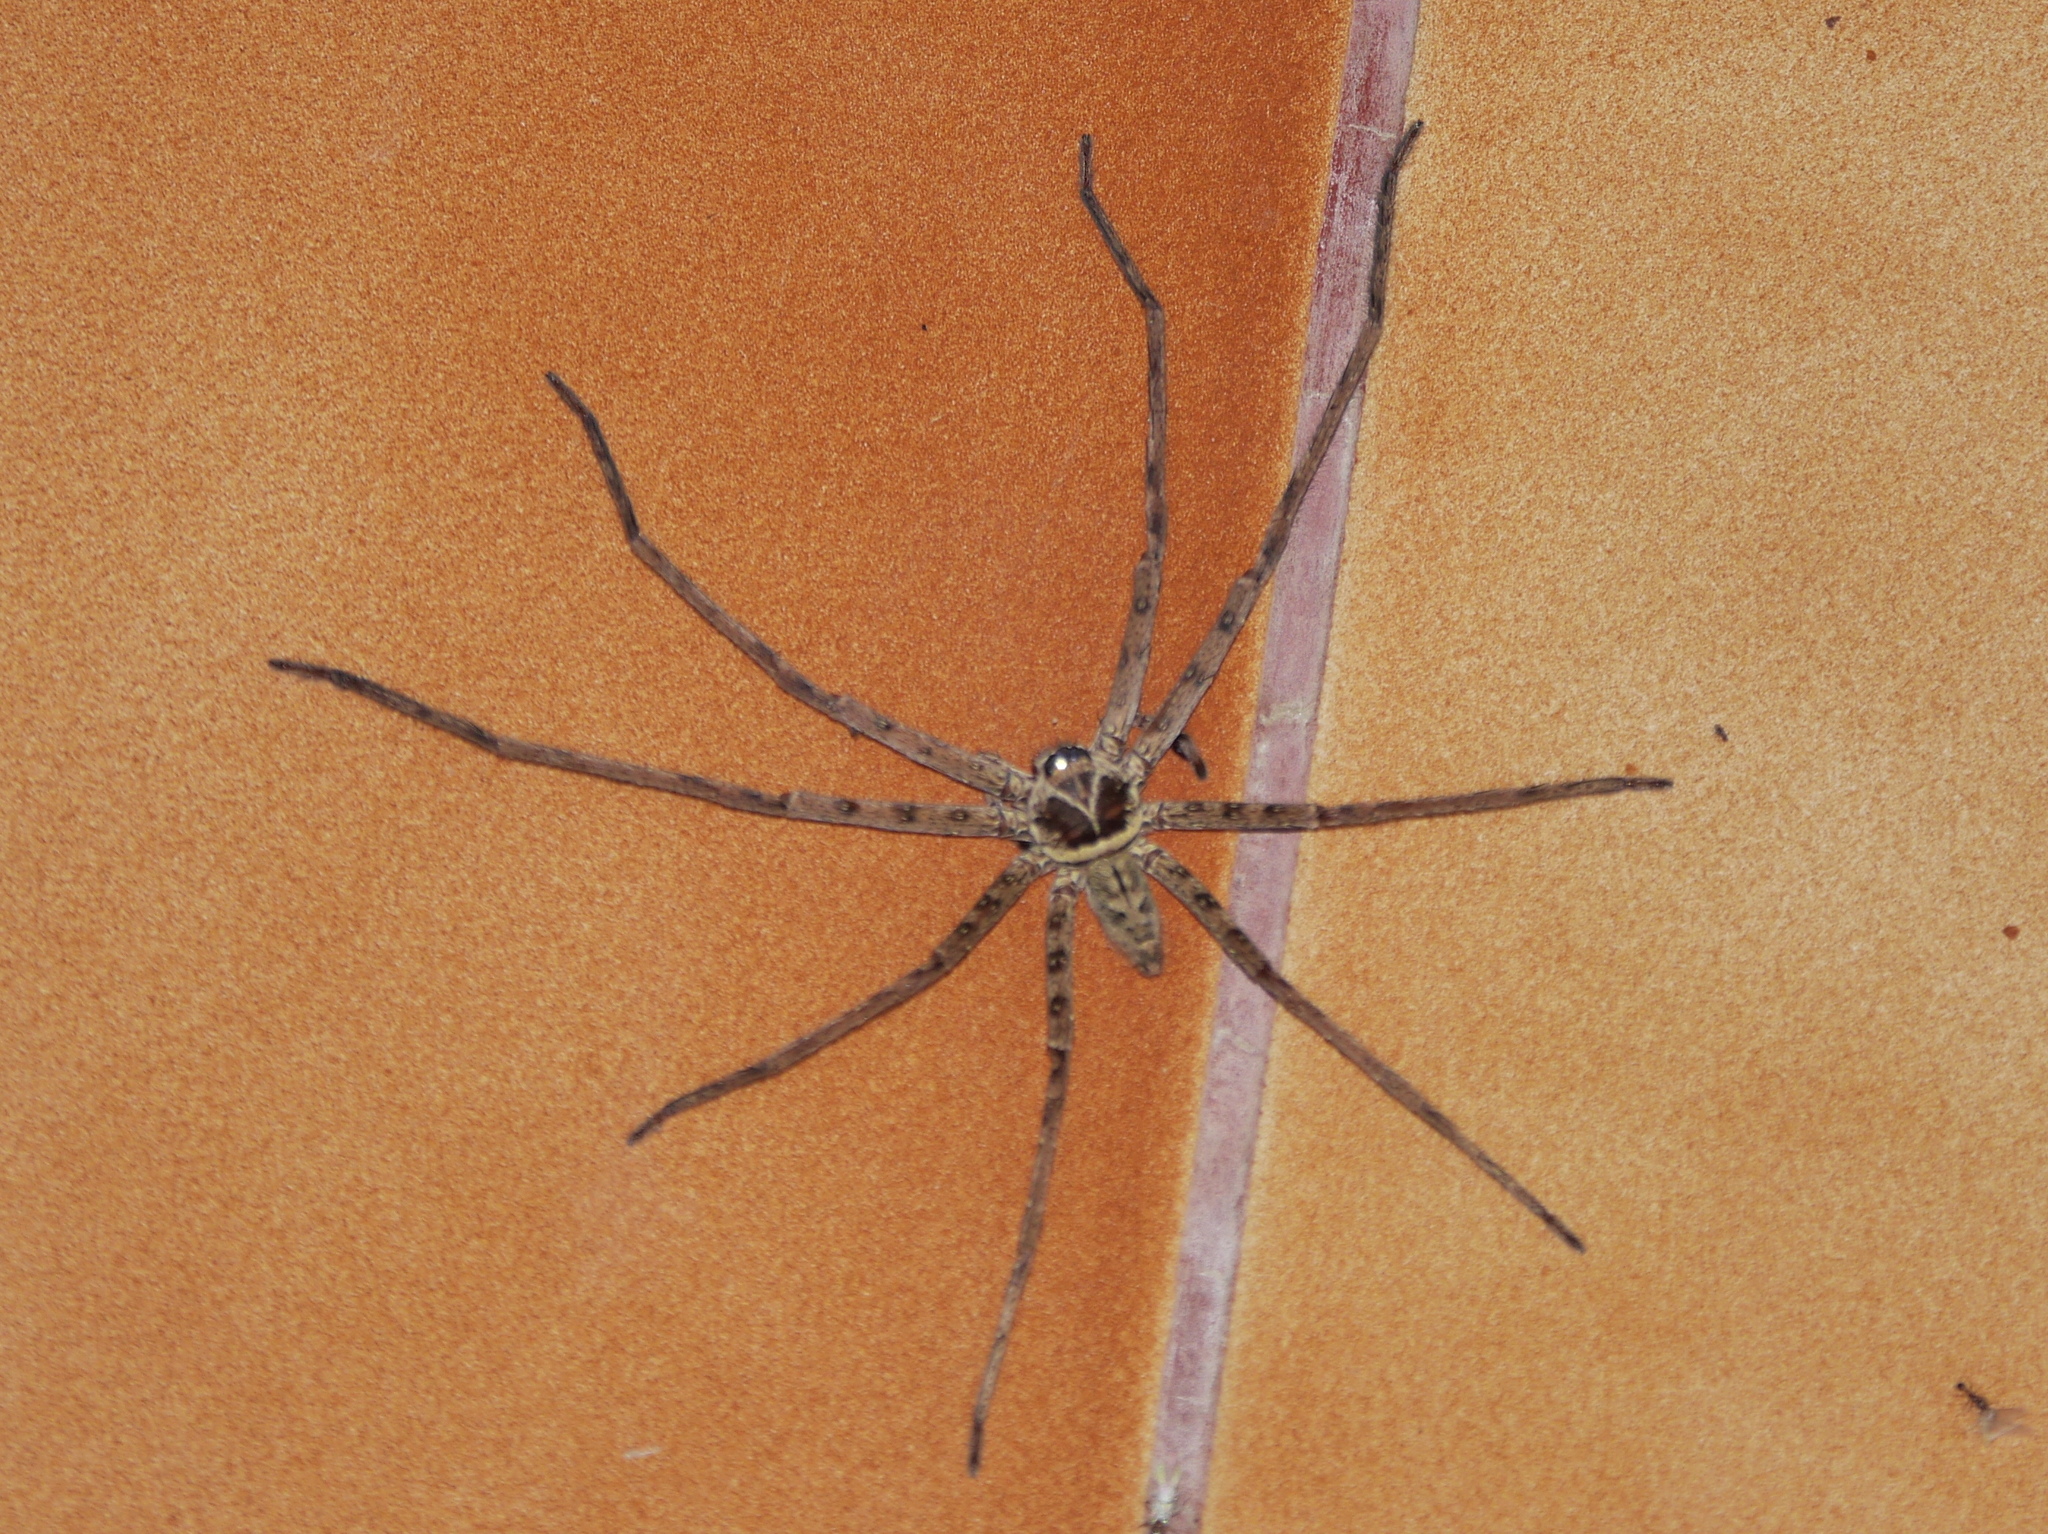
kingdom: Animalia
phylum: Arthropoda
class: Arachnida
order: Araneae
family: Sparassidae
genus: Heteropoda
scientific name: Heteropoda venatoria
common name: Huntsman spider
